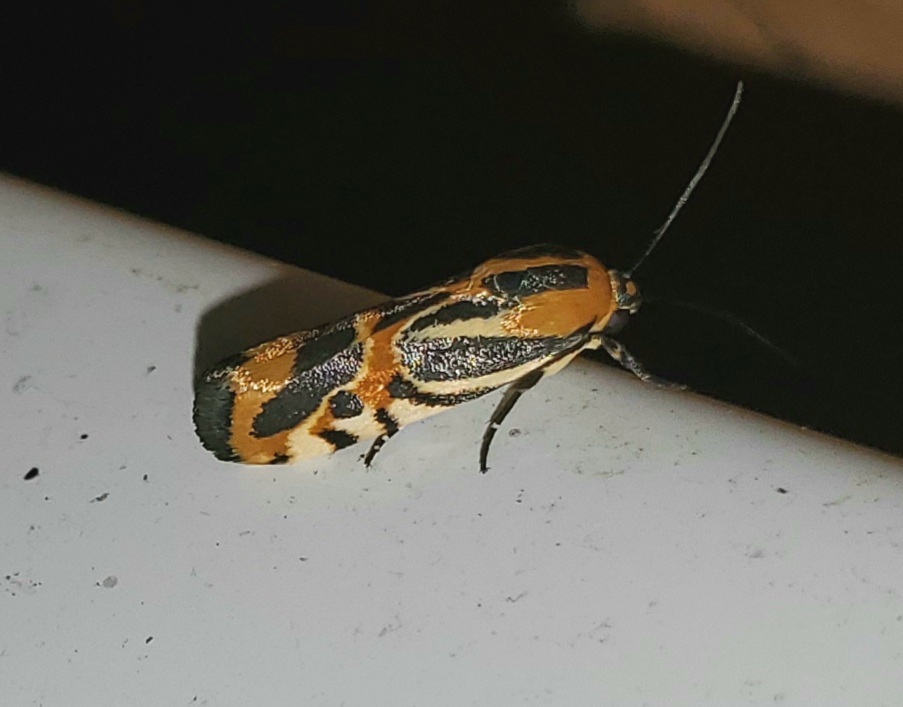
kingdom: Animalia
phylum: Arthropoda
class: Insecta
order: Lepidoptera
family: Noctuidae
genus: Acontia
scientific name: Acontia onagrus
